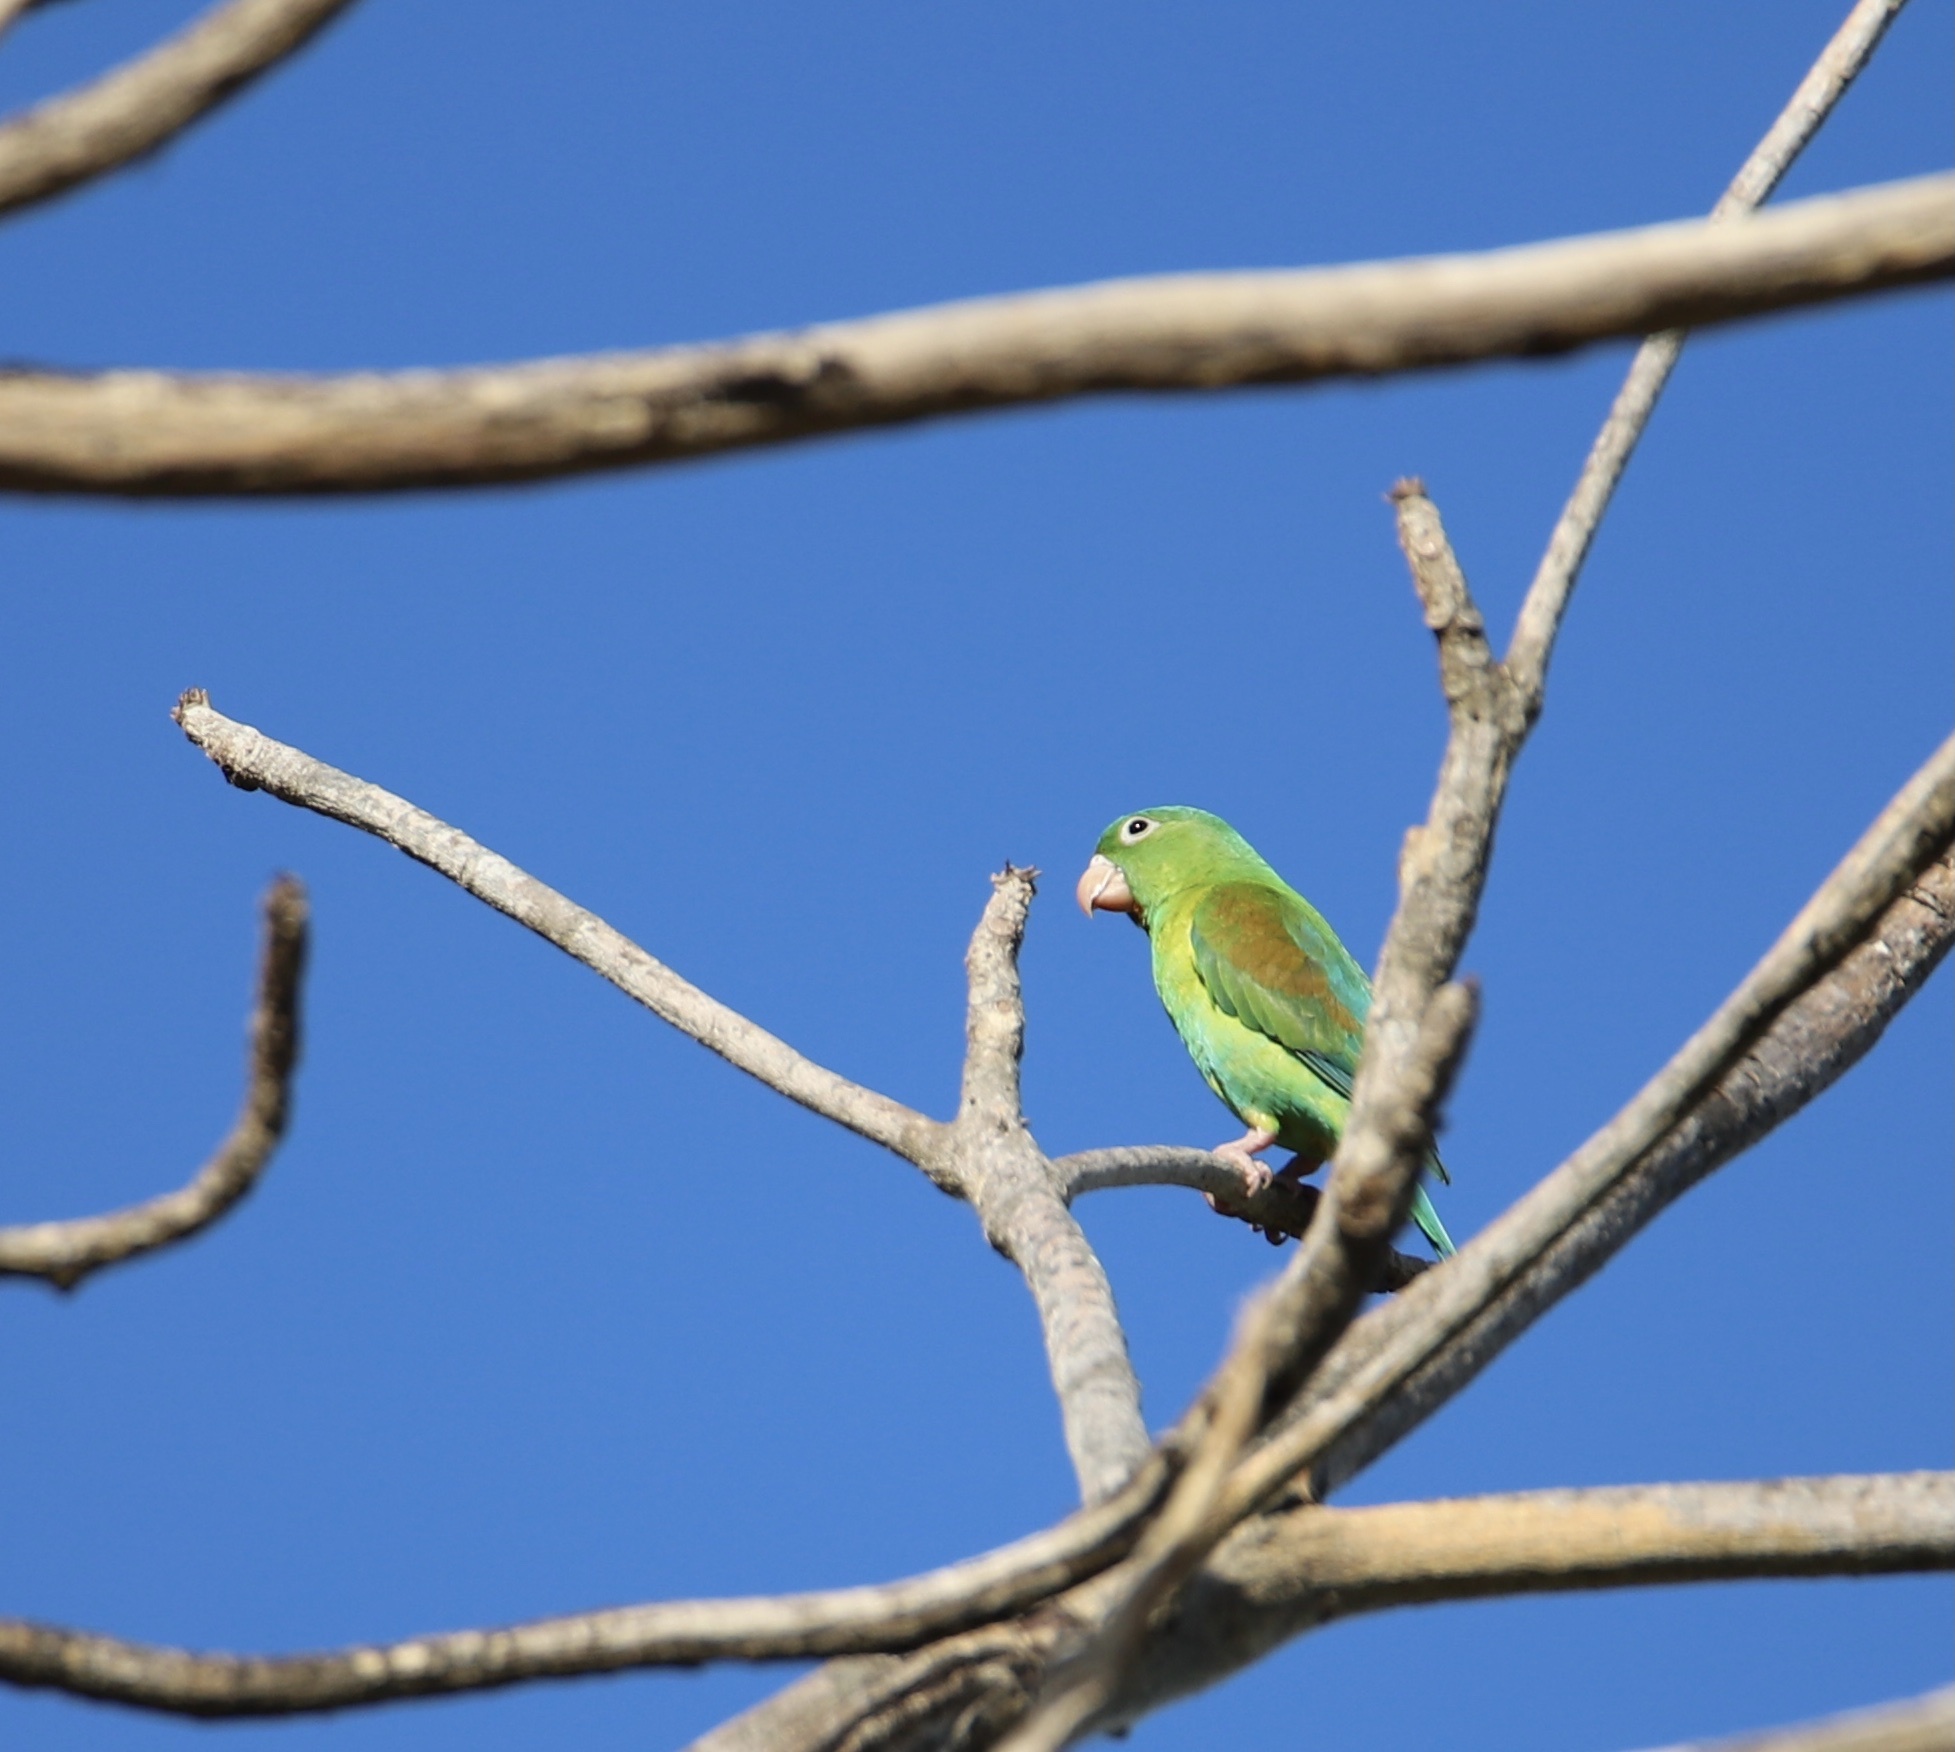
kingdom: Animalia
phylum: Chordata
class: Aves
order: Psittaciformes
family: Psittacidae
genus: Brotogeris
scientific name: Brotogeris jugularis
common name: Orange-chinned parakeet
